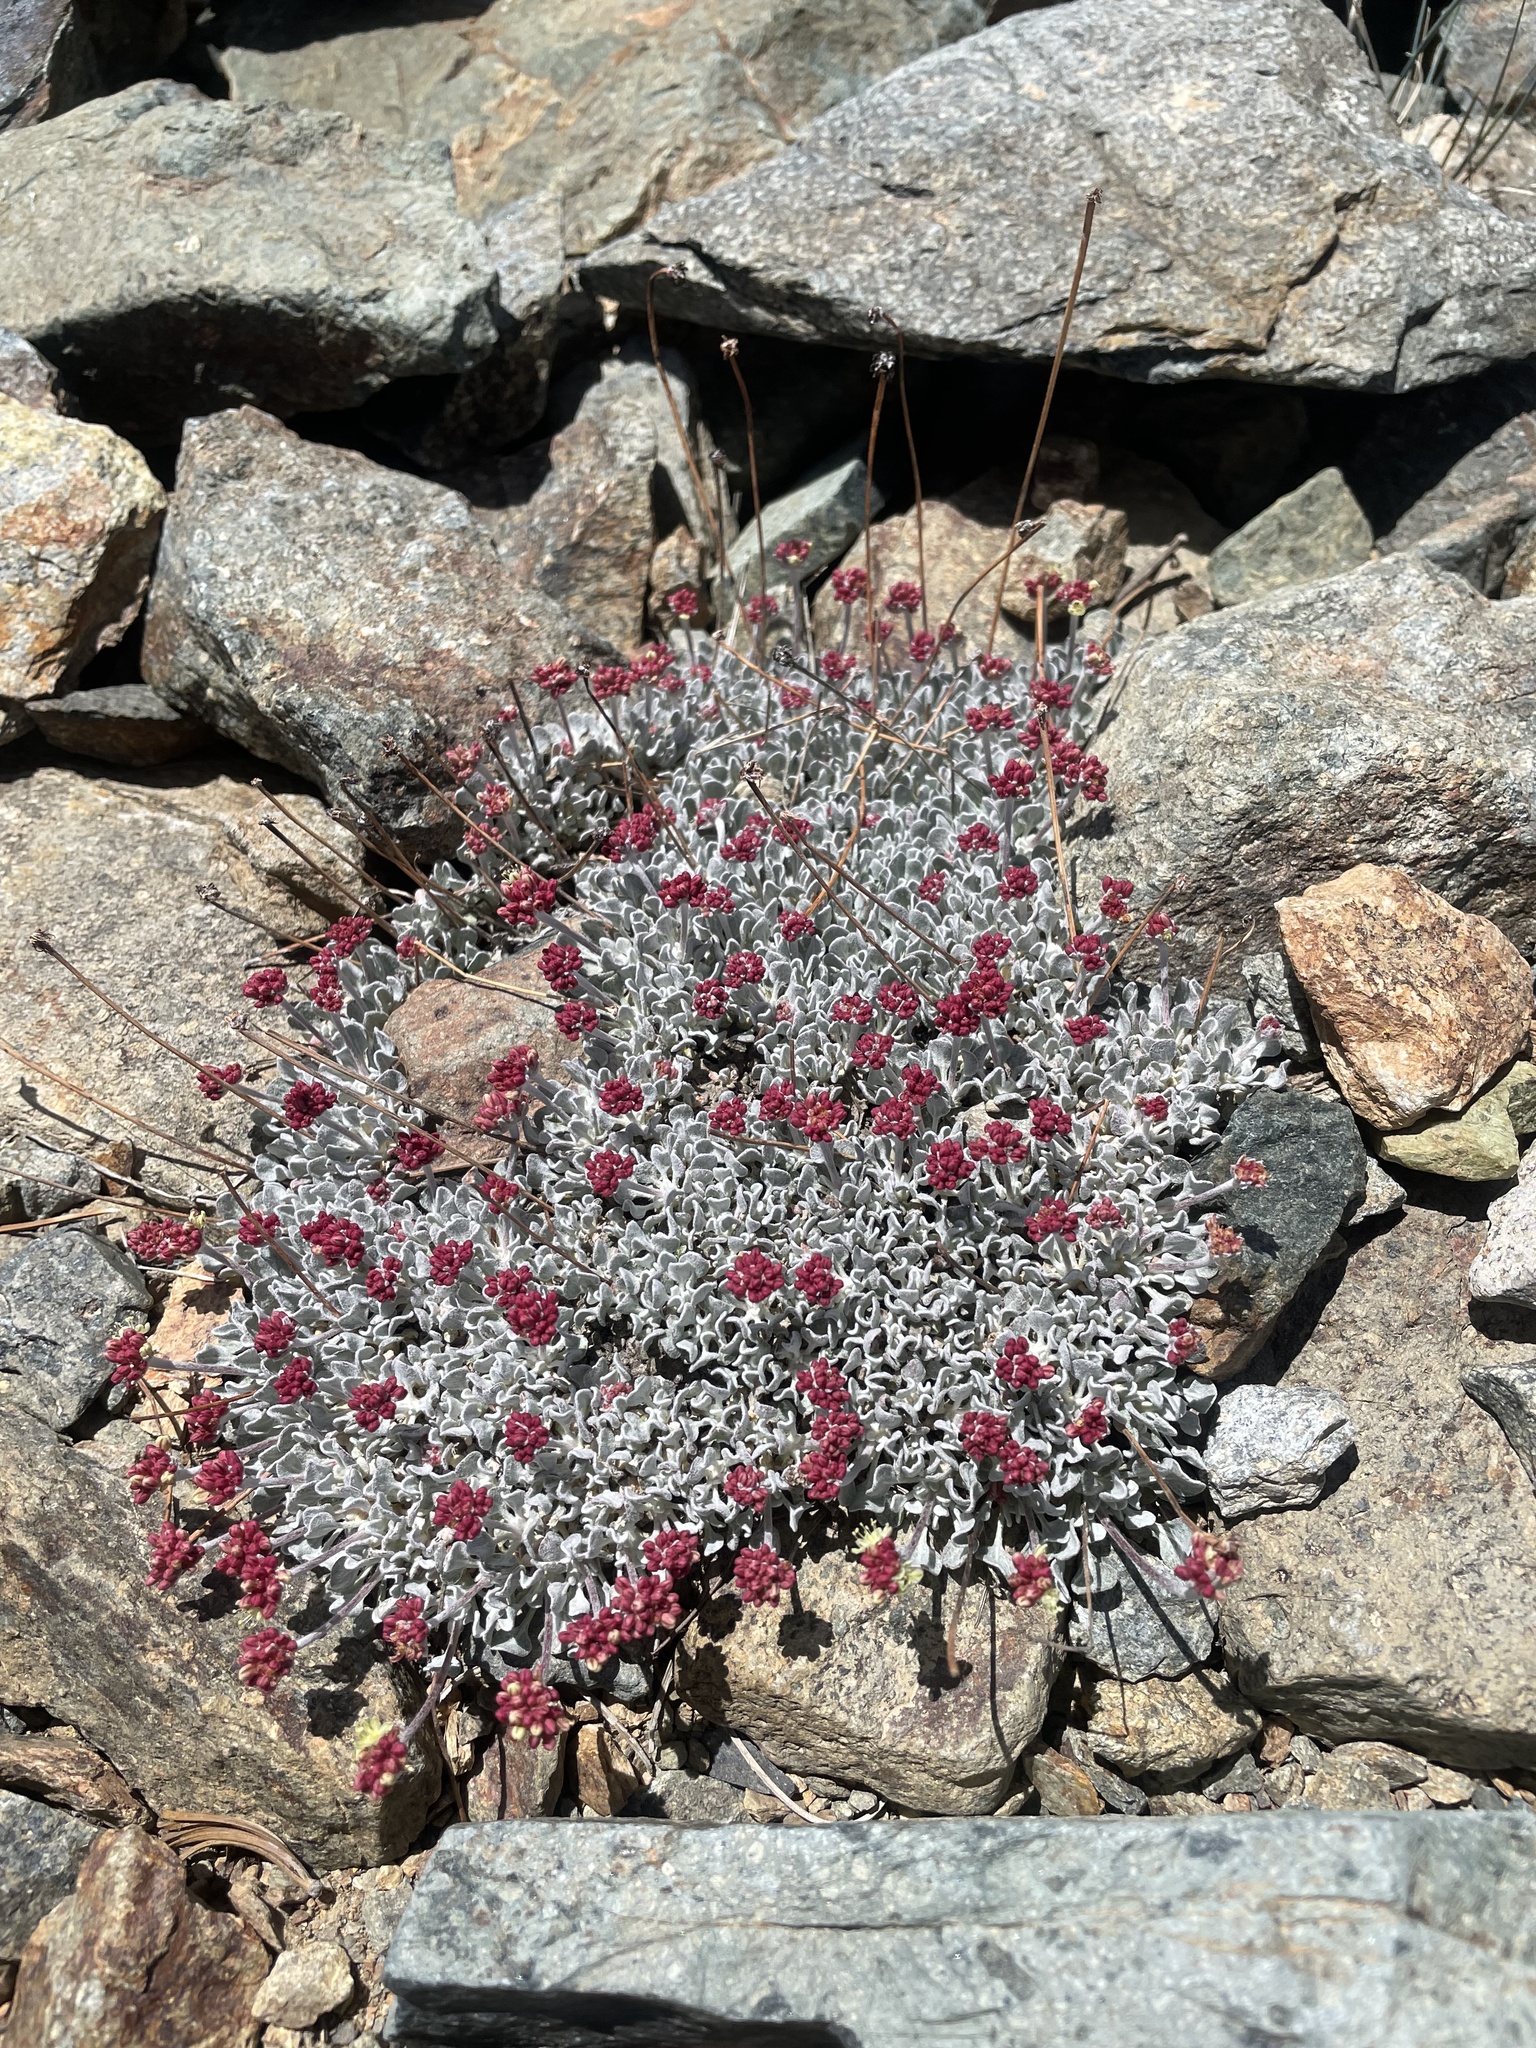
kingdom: Plantae
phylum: Tracheophyta
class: Magnoliopsida
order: Caryophyllales
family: Polygonaceae
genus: Eriogonum
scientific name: Eriogonum ovalifolium
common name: Cushion buckwheat
